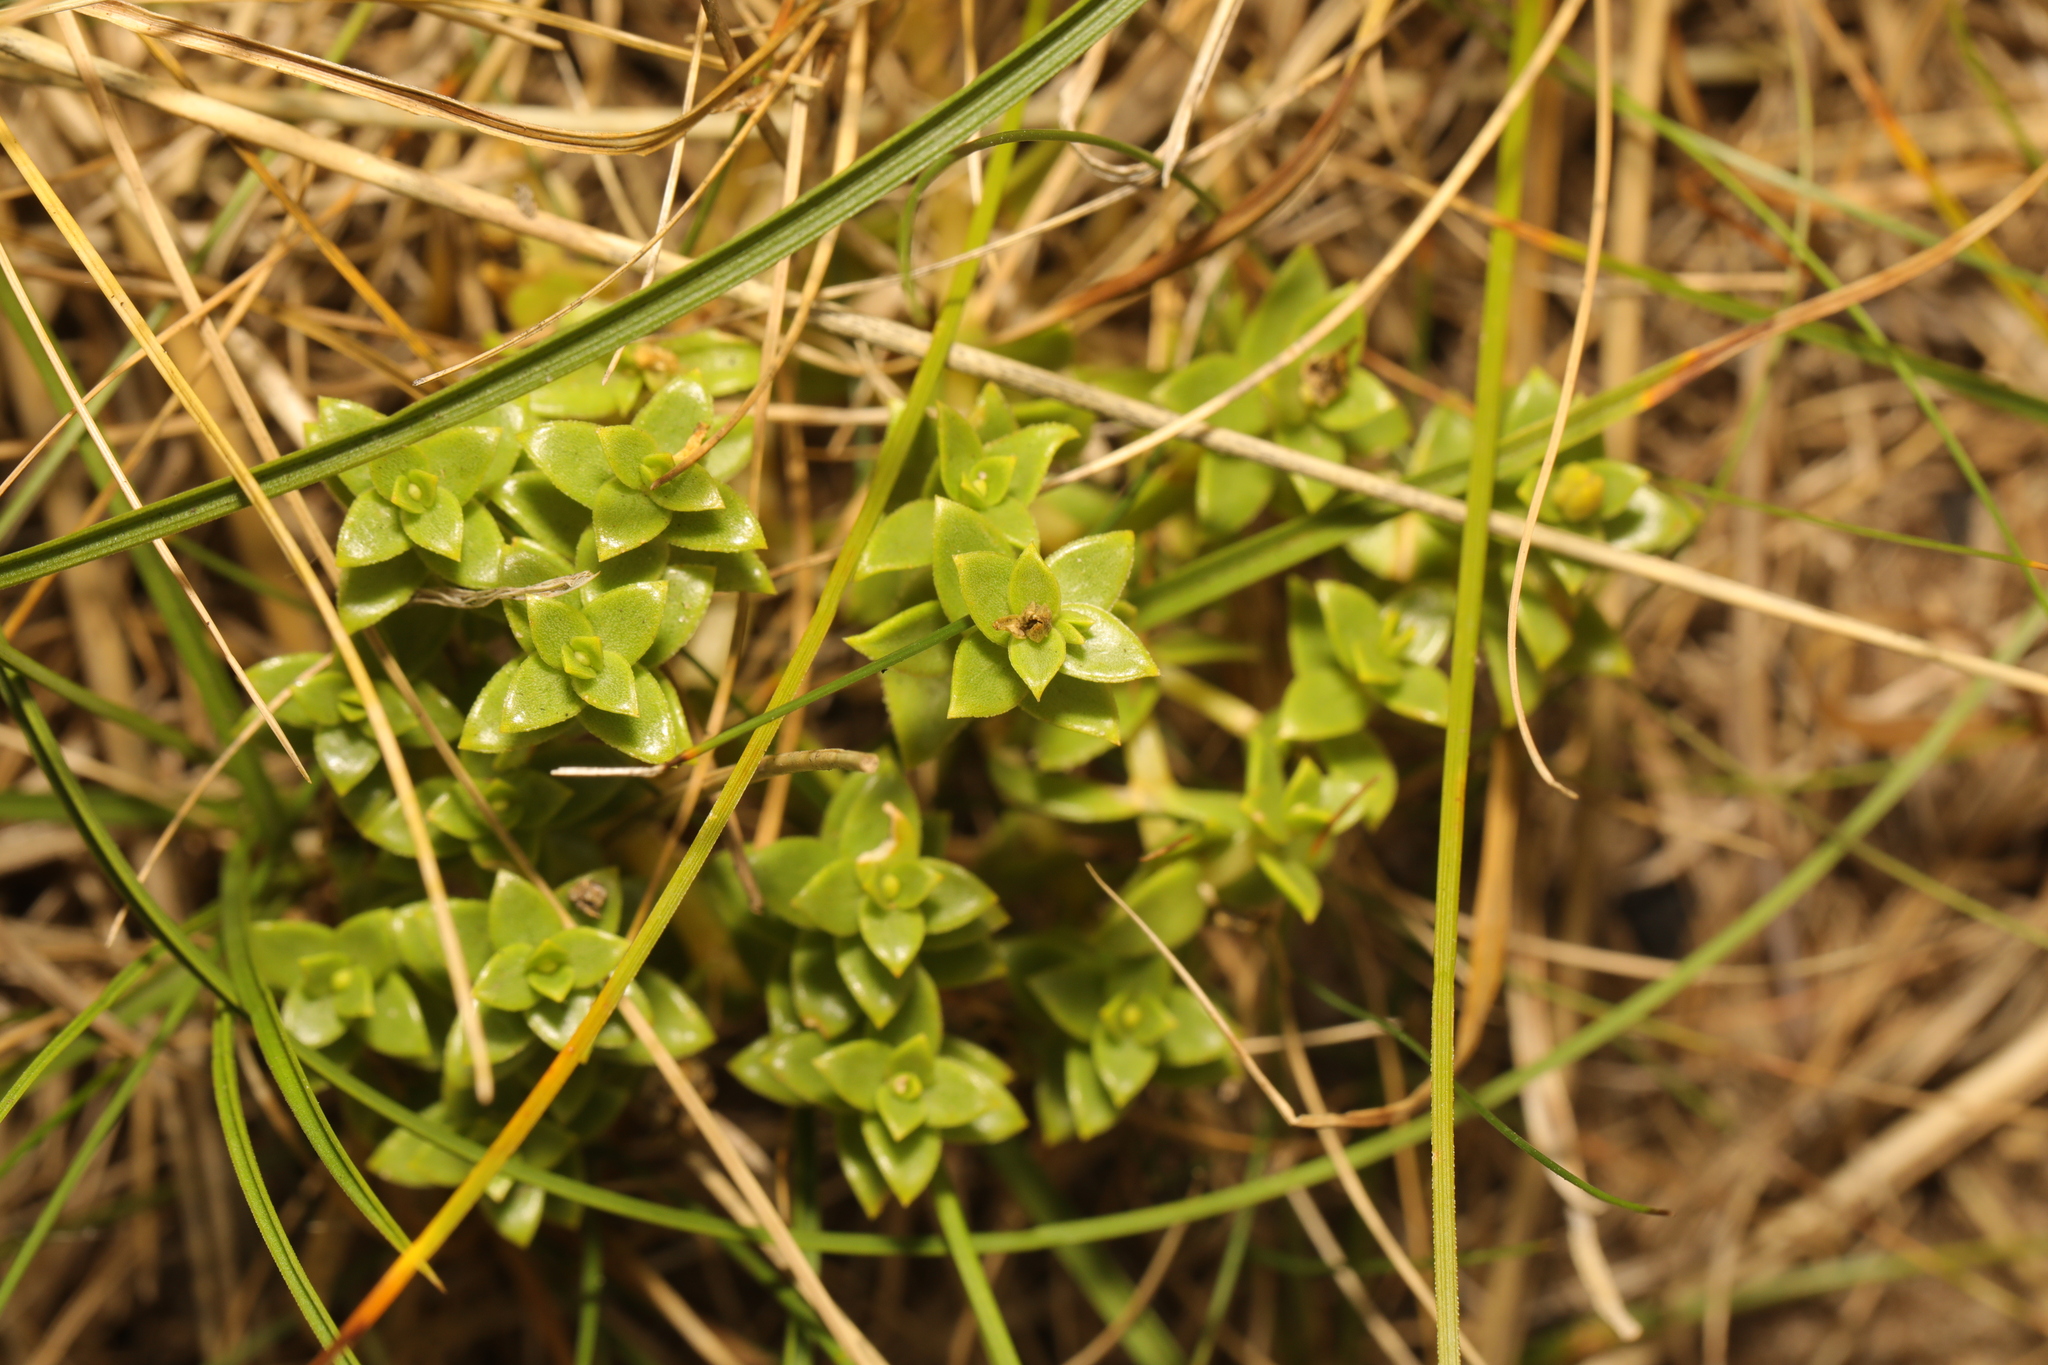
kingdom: Plantae
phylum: Tracheophyta
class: Magnoliopsida
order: Caryophyllales
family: Caryophyllaceae
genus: Honckenya
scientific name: Honckenya peploides
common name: Sea sandwort
